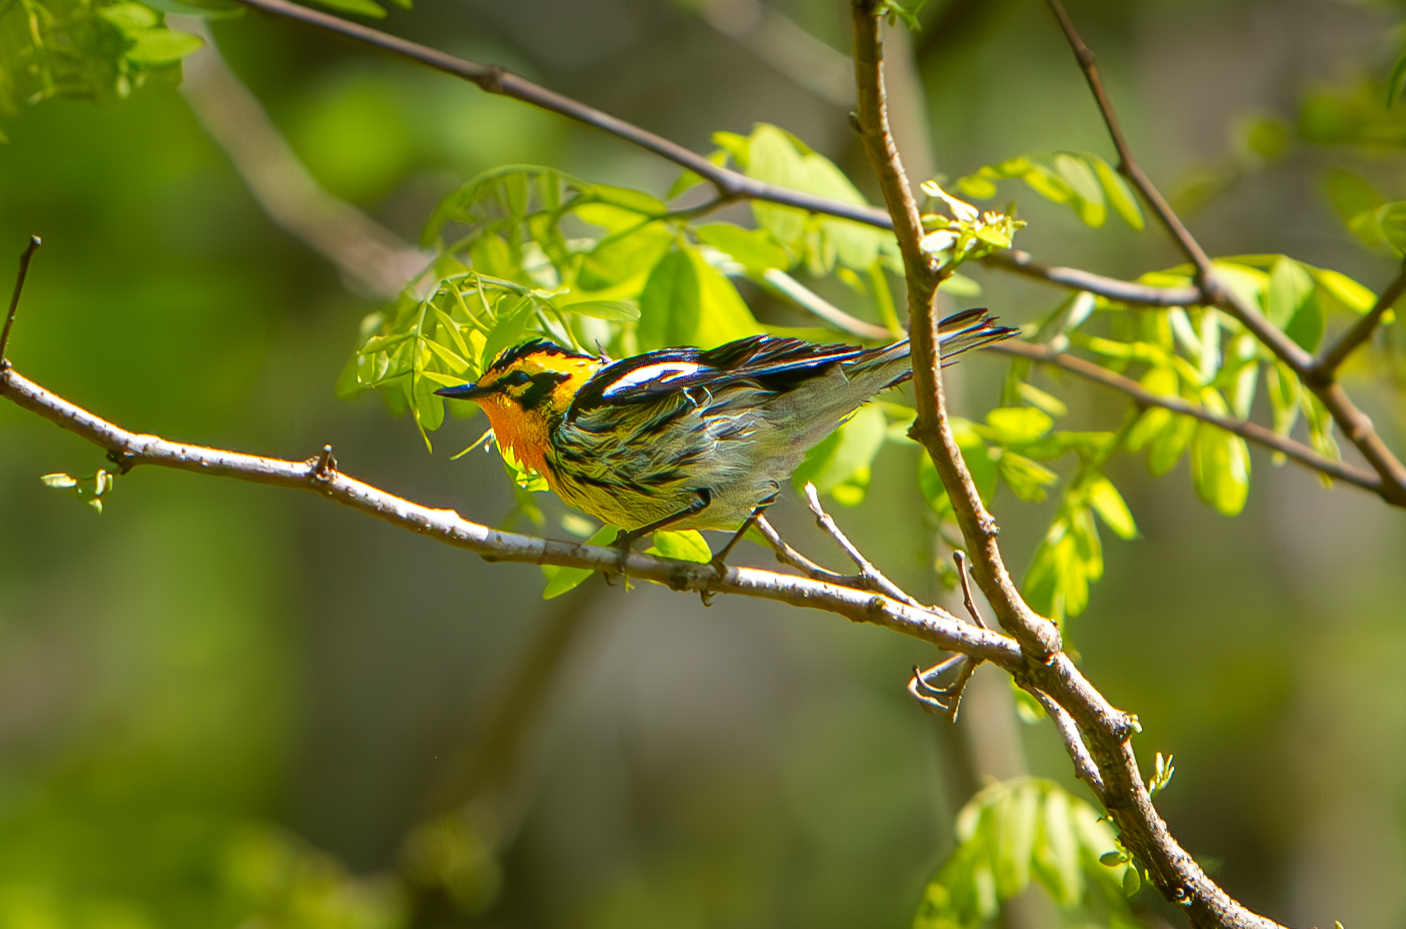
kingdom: Animalia
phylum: Chordata
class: Aves
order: Passeriformes
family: Parulidae
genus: Setophaga
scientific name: Setophaga fusca
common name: Blackburnian warbler
